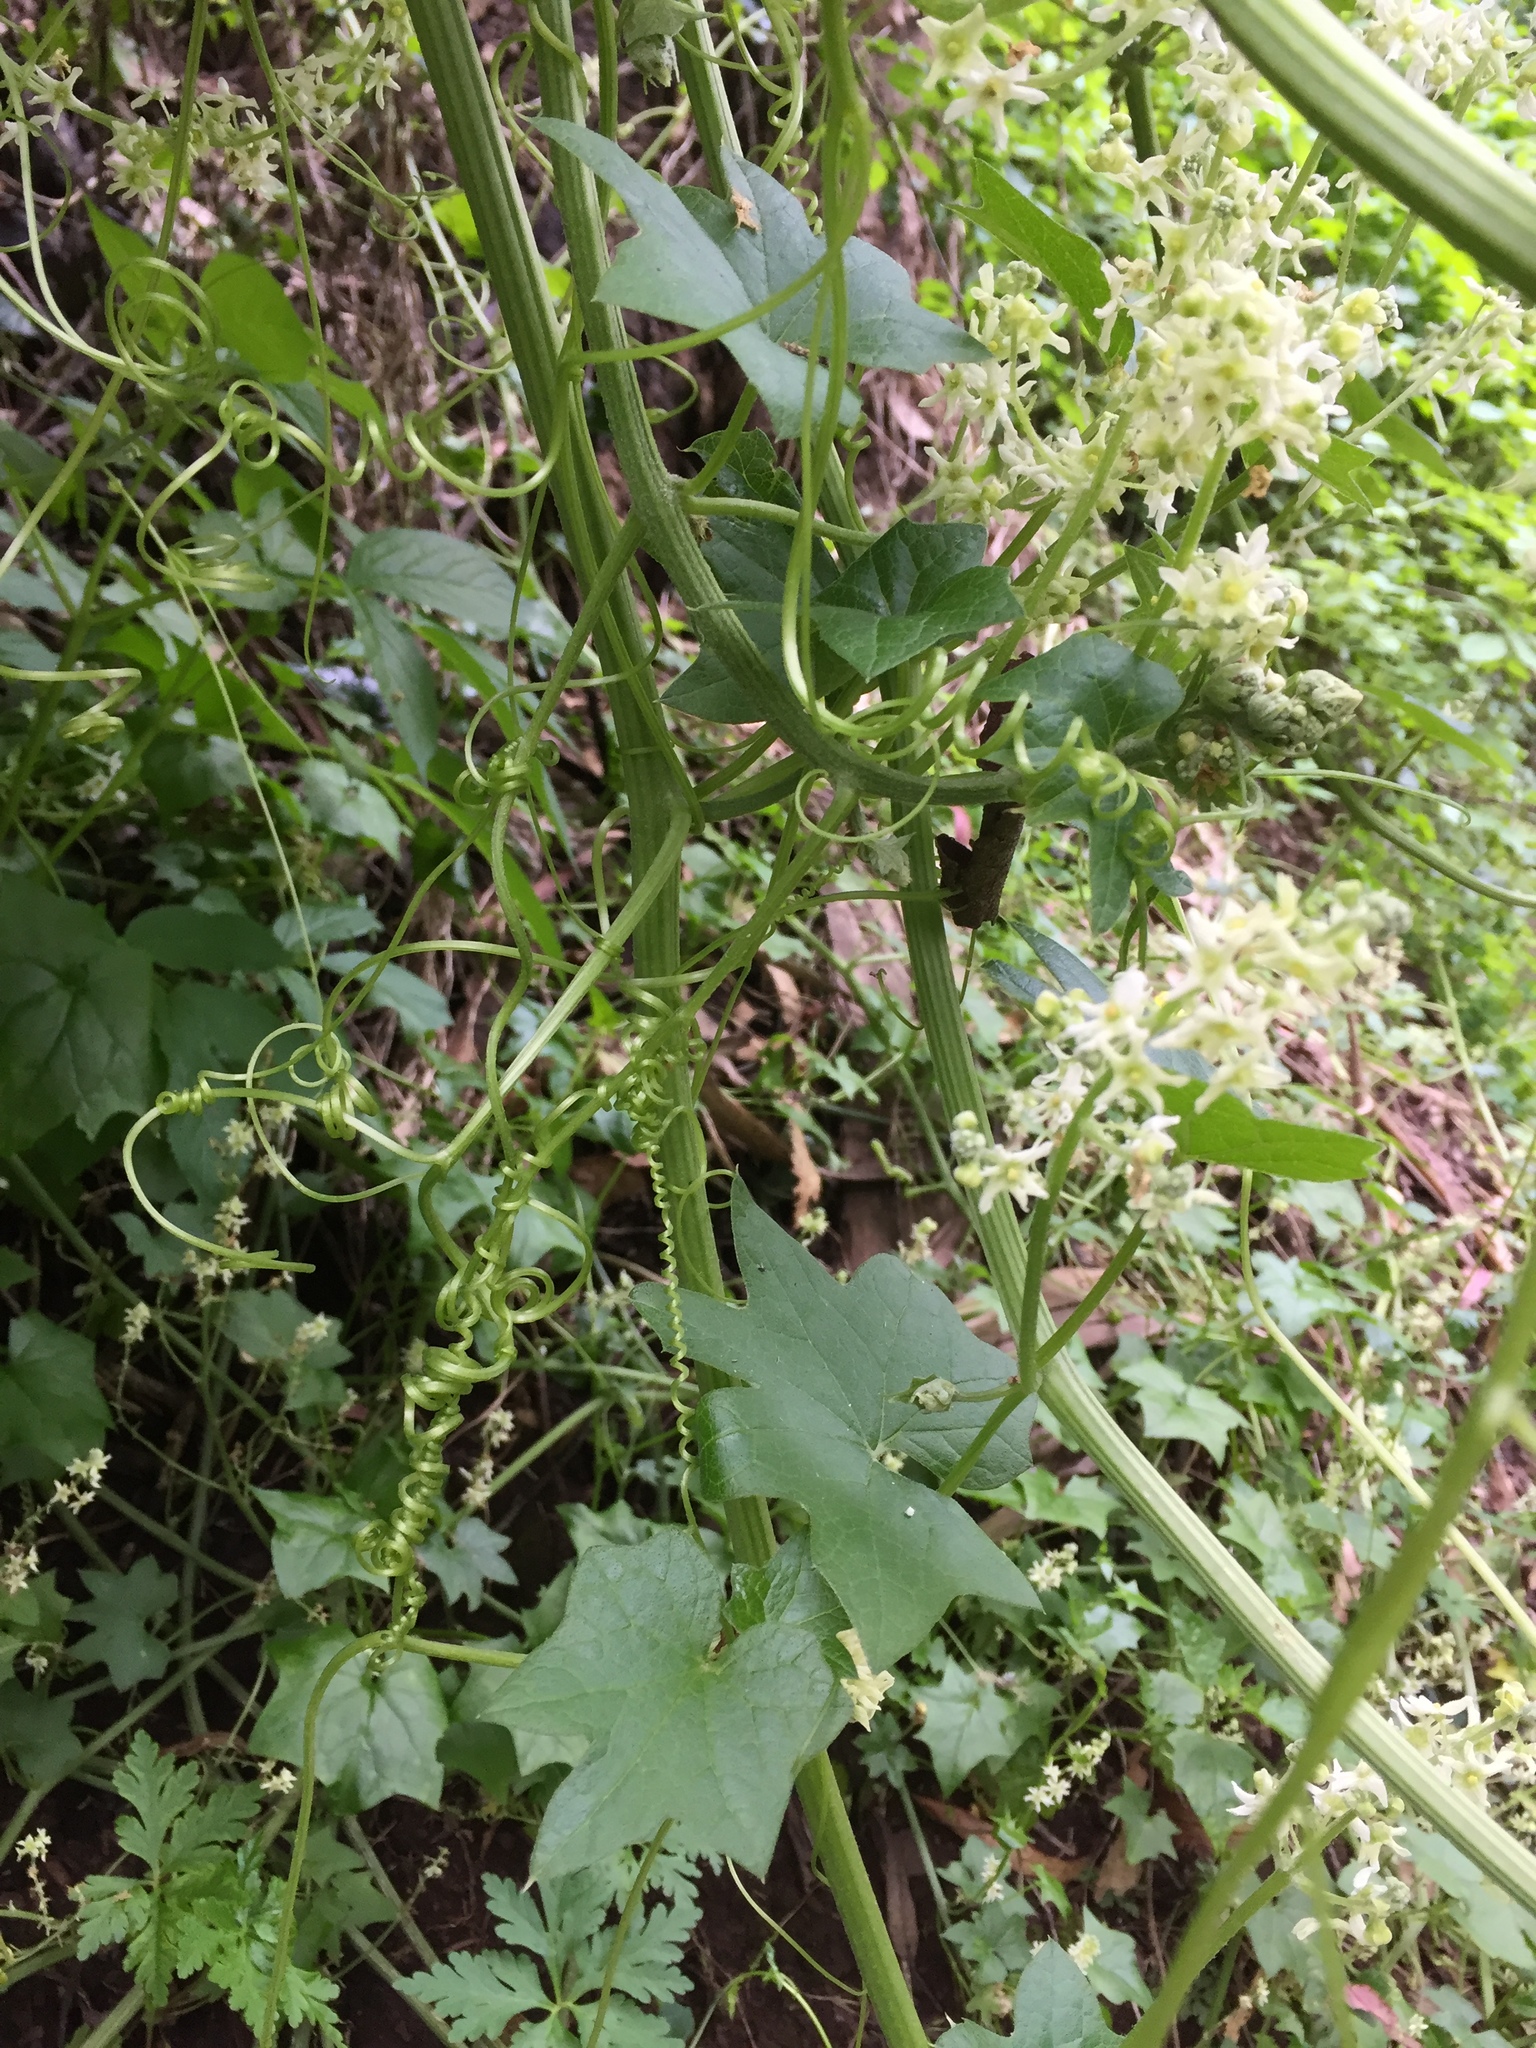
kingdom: Plantae
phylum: Tracheophyta
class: Magnoliopsida
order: Cucurbitales
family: Cucurbitaceae
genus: Marah
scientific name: Marah fabacea
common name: California manroot
